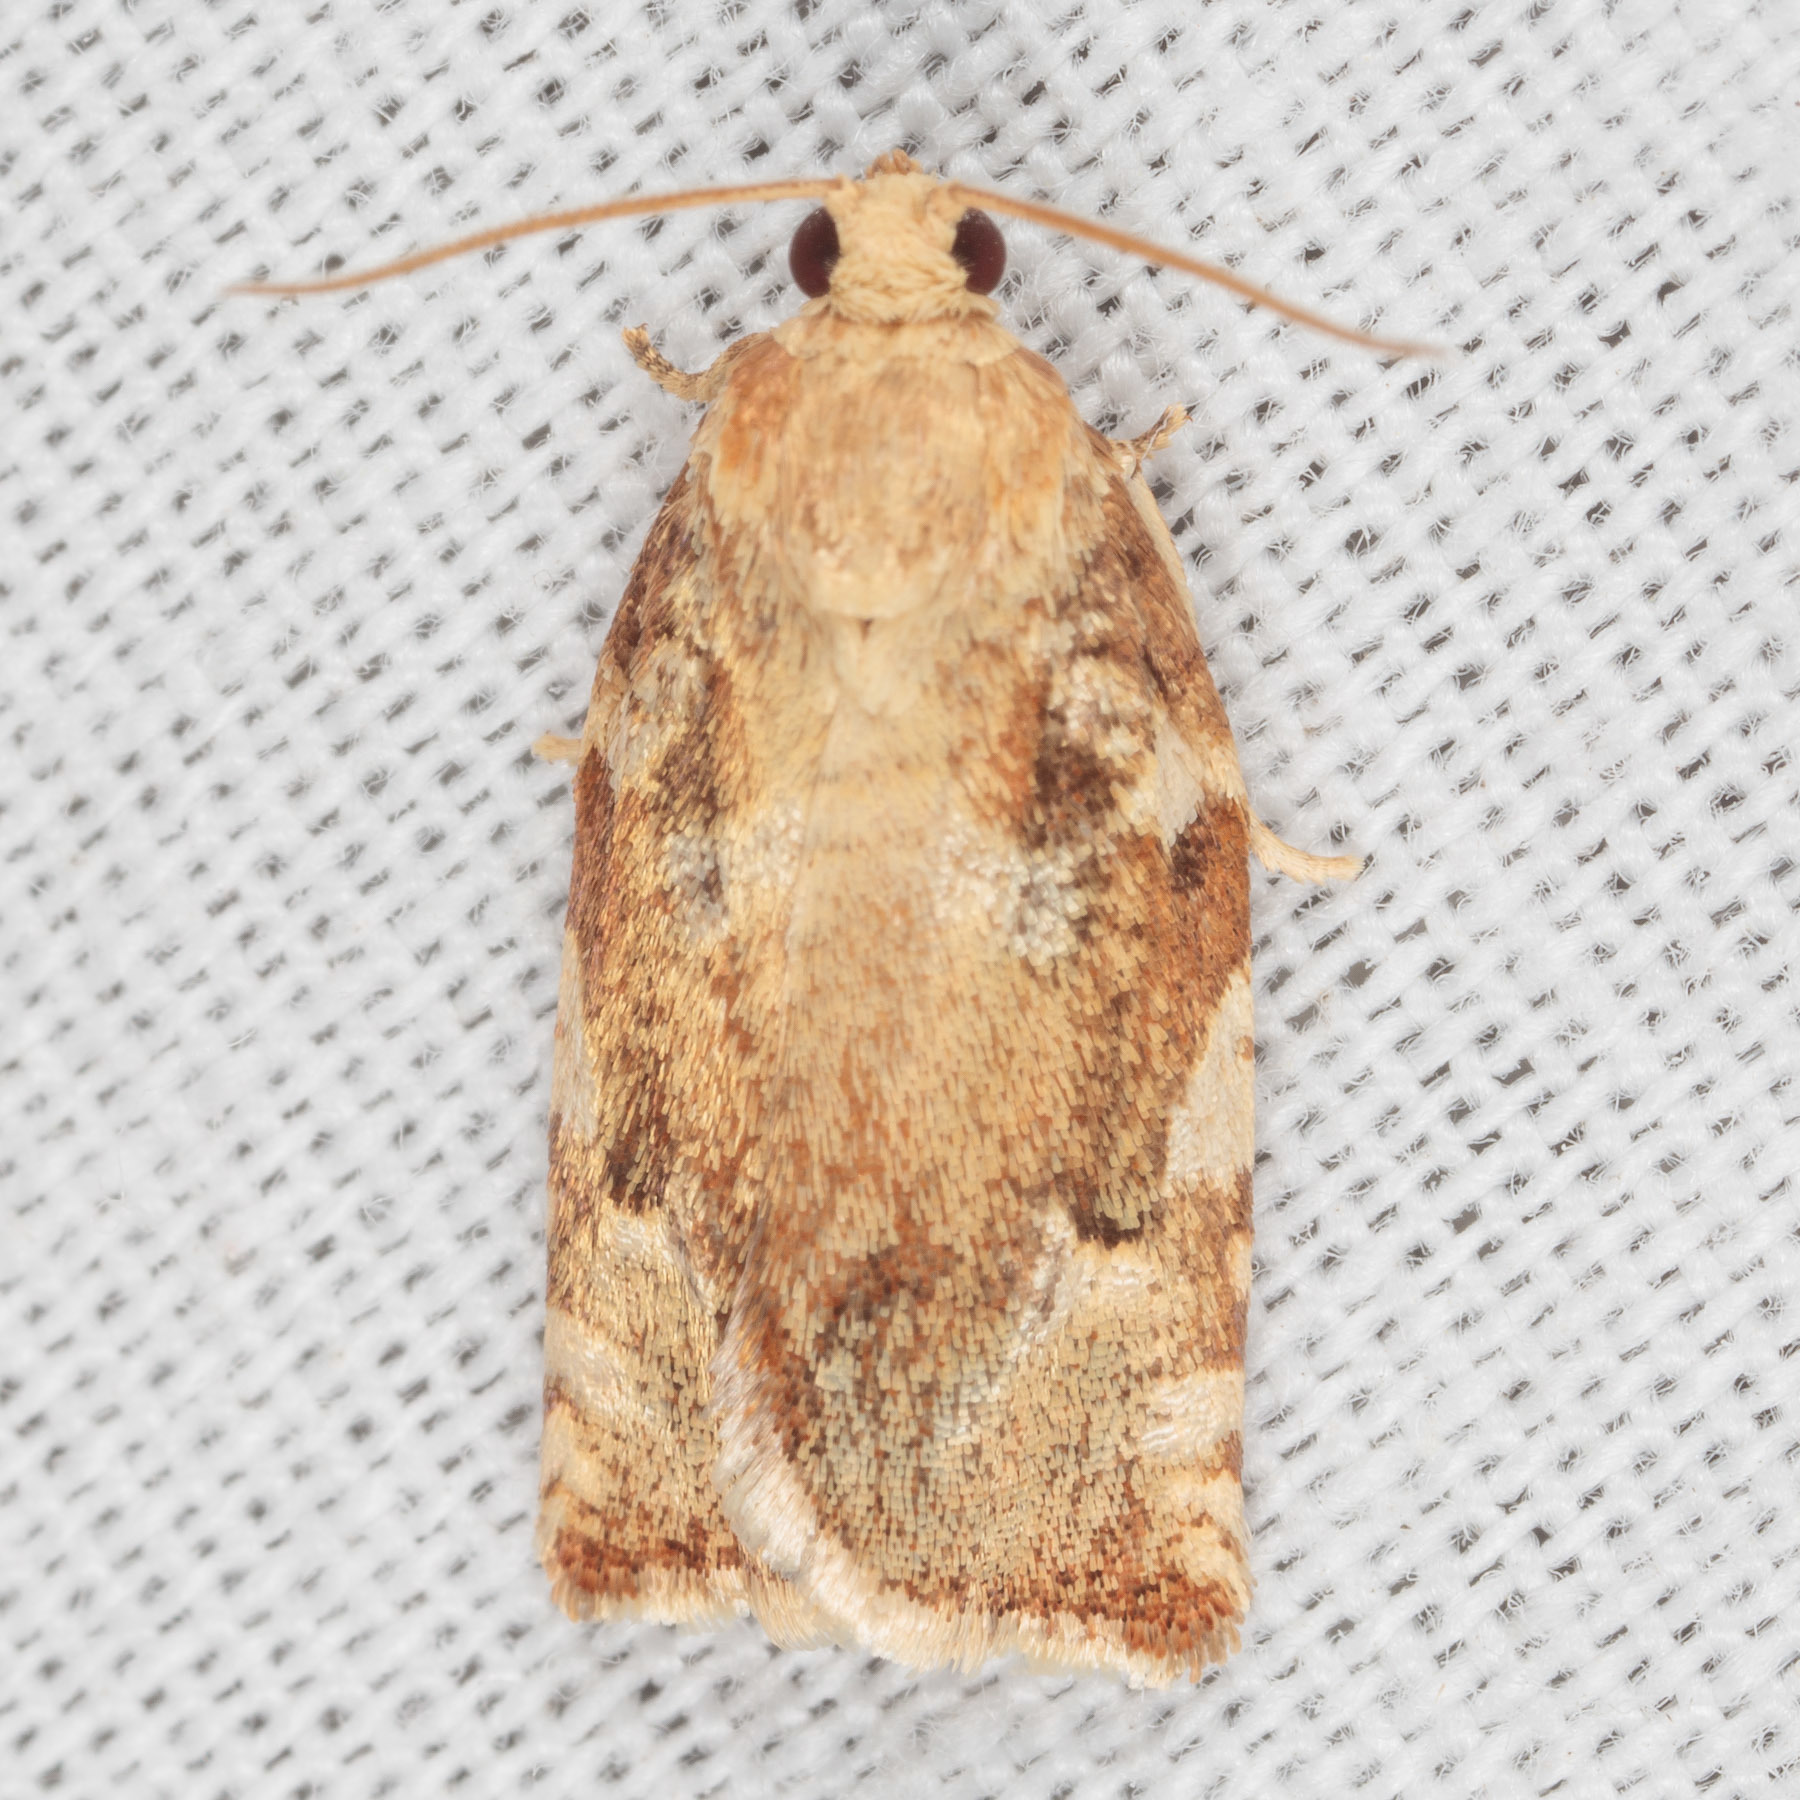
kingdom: Animalia
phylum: Arthropoda
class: Insecta
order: Lepidoptera
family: Tortricidae
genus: Archips
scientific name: Archips semiferanus
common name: Oak leafroller
